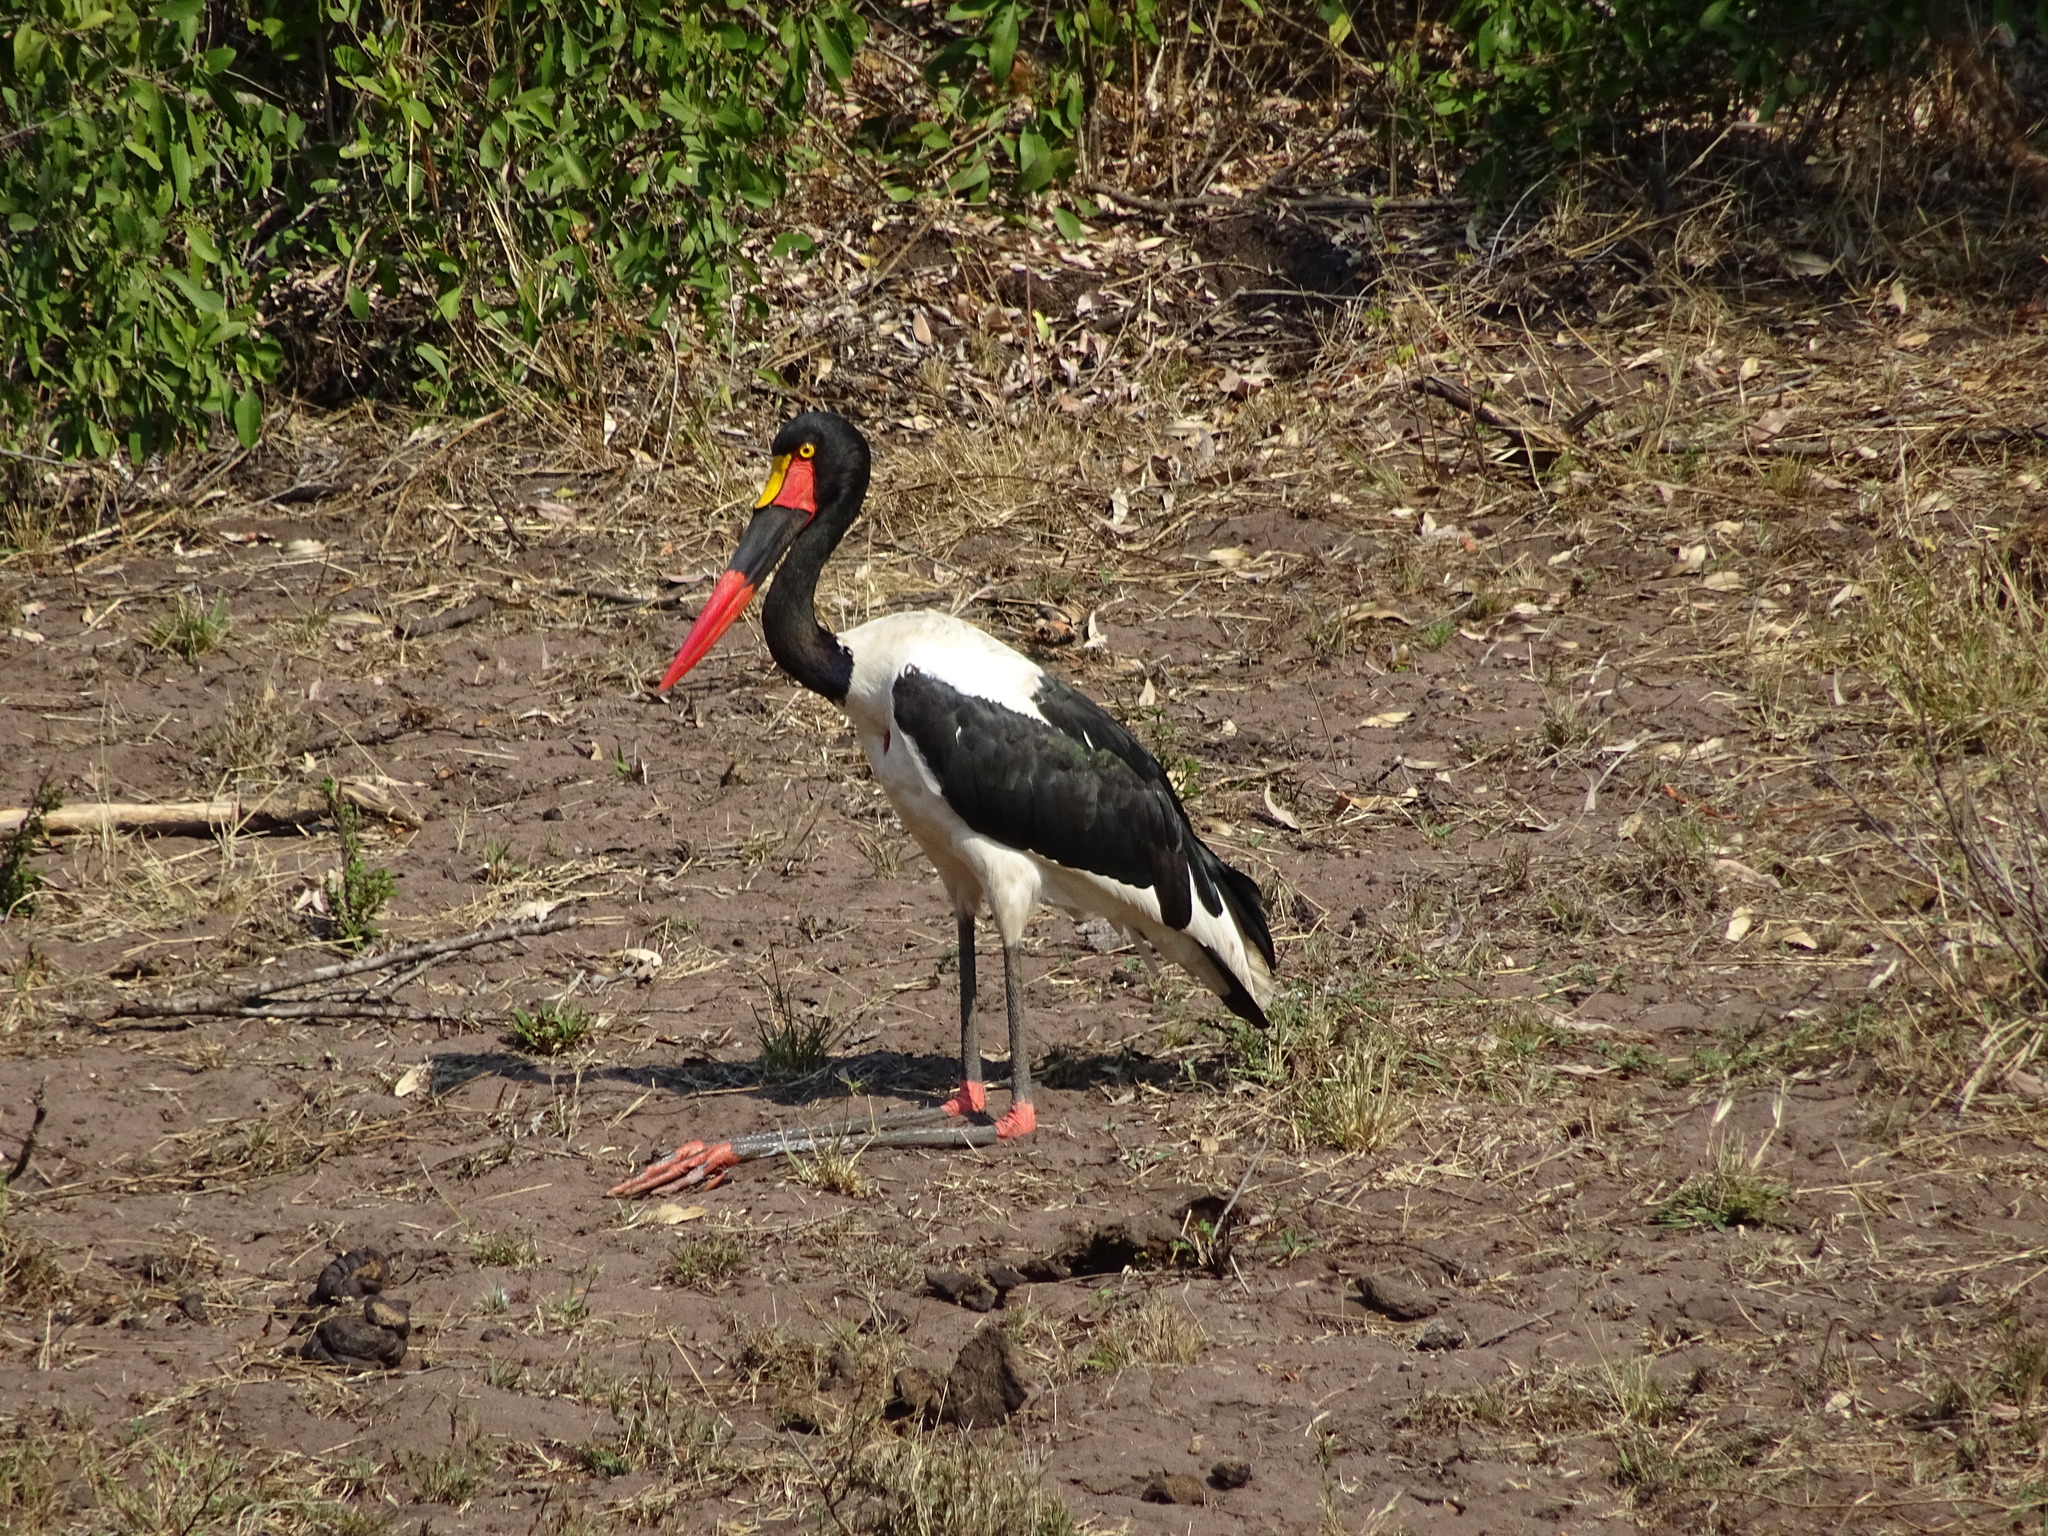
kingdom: Animalia
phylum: Chordata
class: Aves
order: Ciconiiformes
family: Ciconiidae
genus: Ephippiorhynchus
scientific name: Ephippiorhynchus senegalensis
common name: Saddle-billed stork
